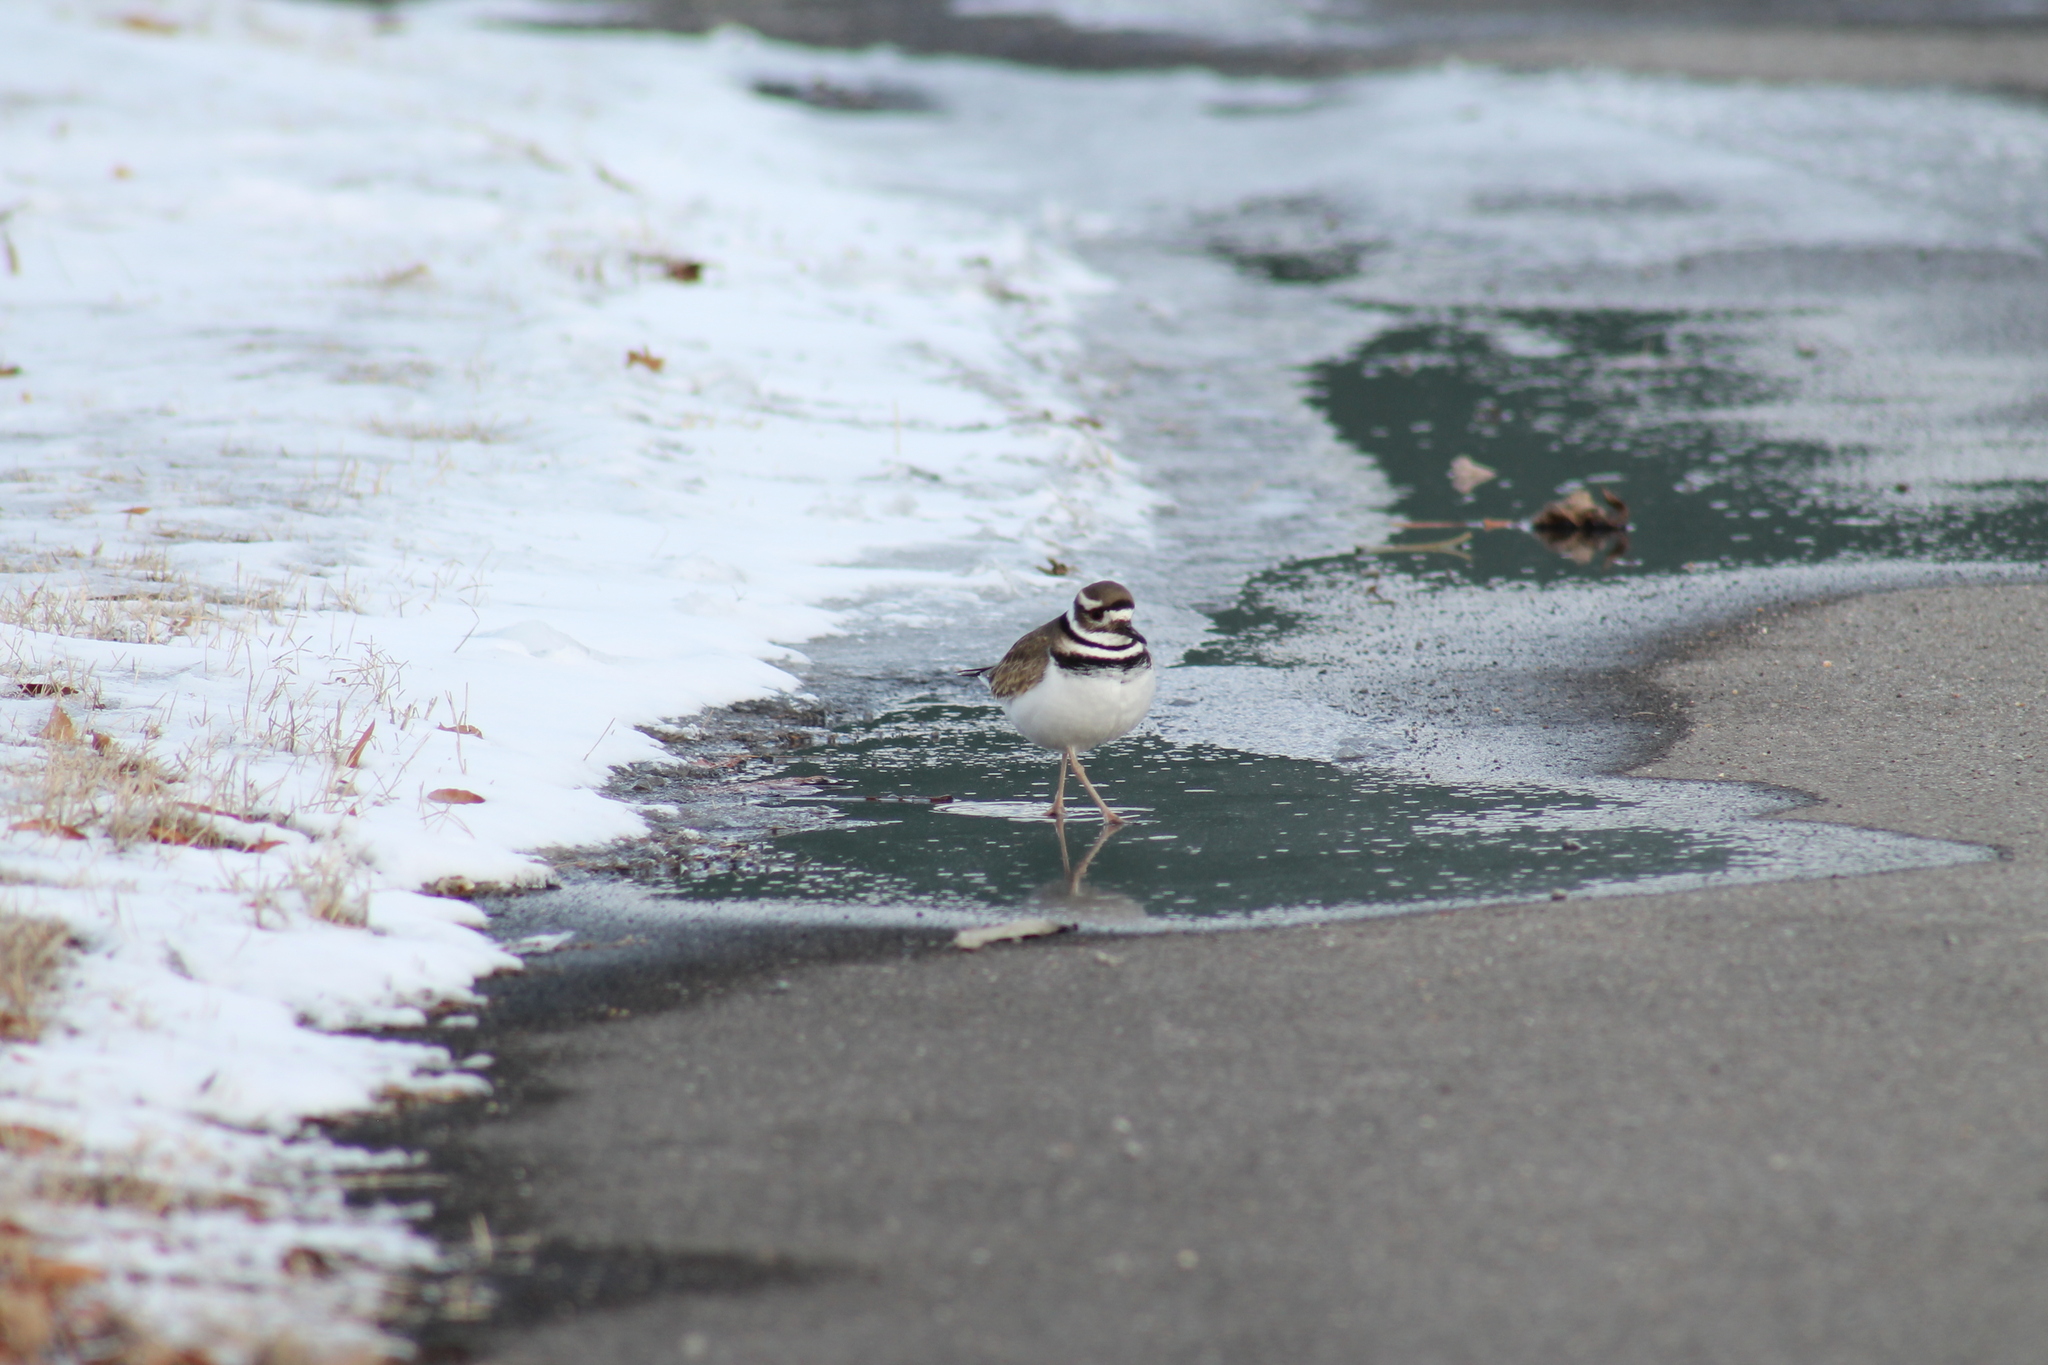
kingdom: Animalia
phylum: Chordata
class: Aves
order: Charadriiformes
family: Charadriidae
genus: Charadrius
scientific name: Charadrius vociferus
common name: Killdeer
